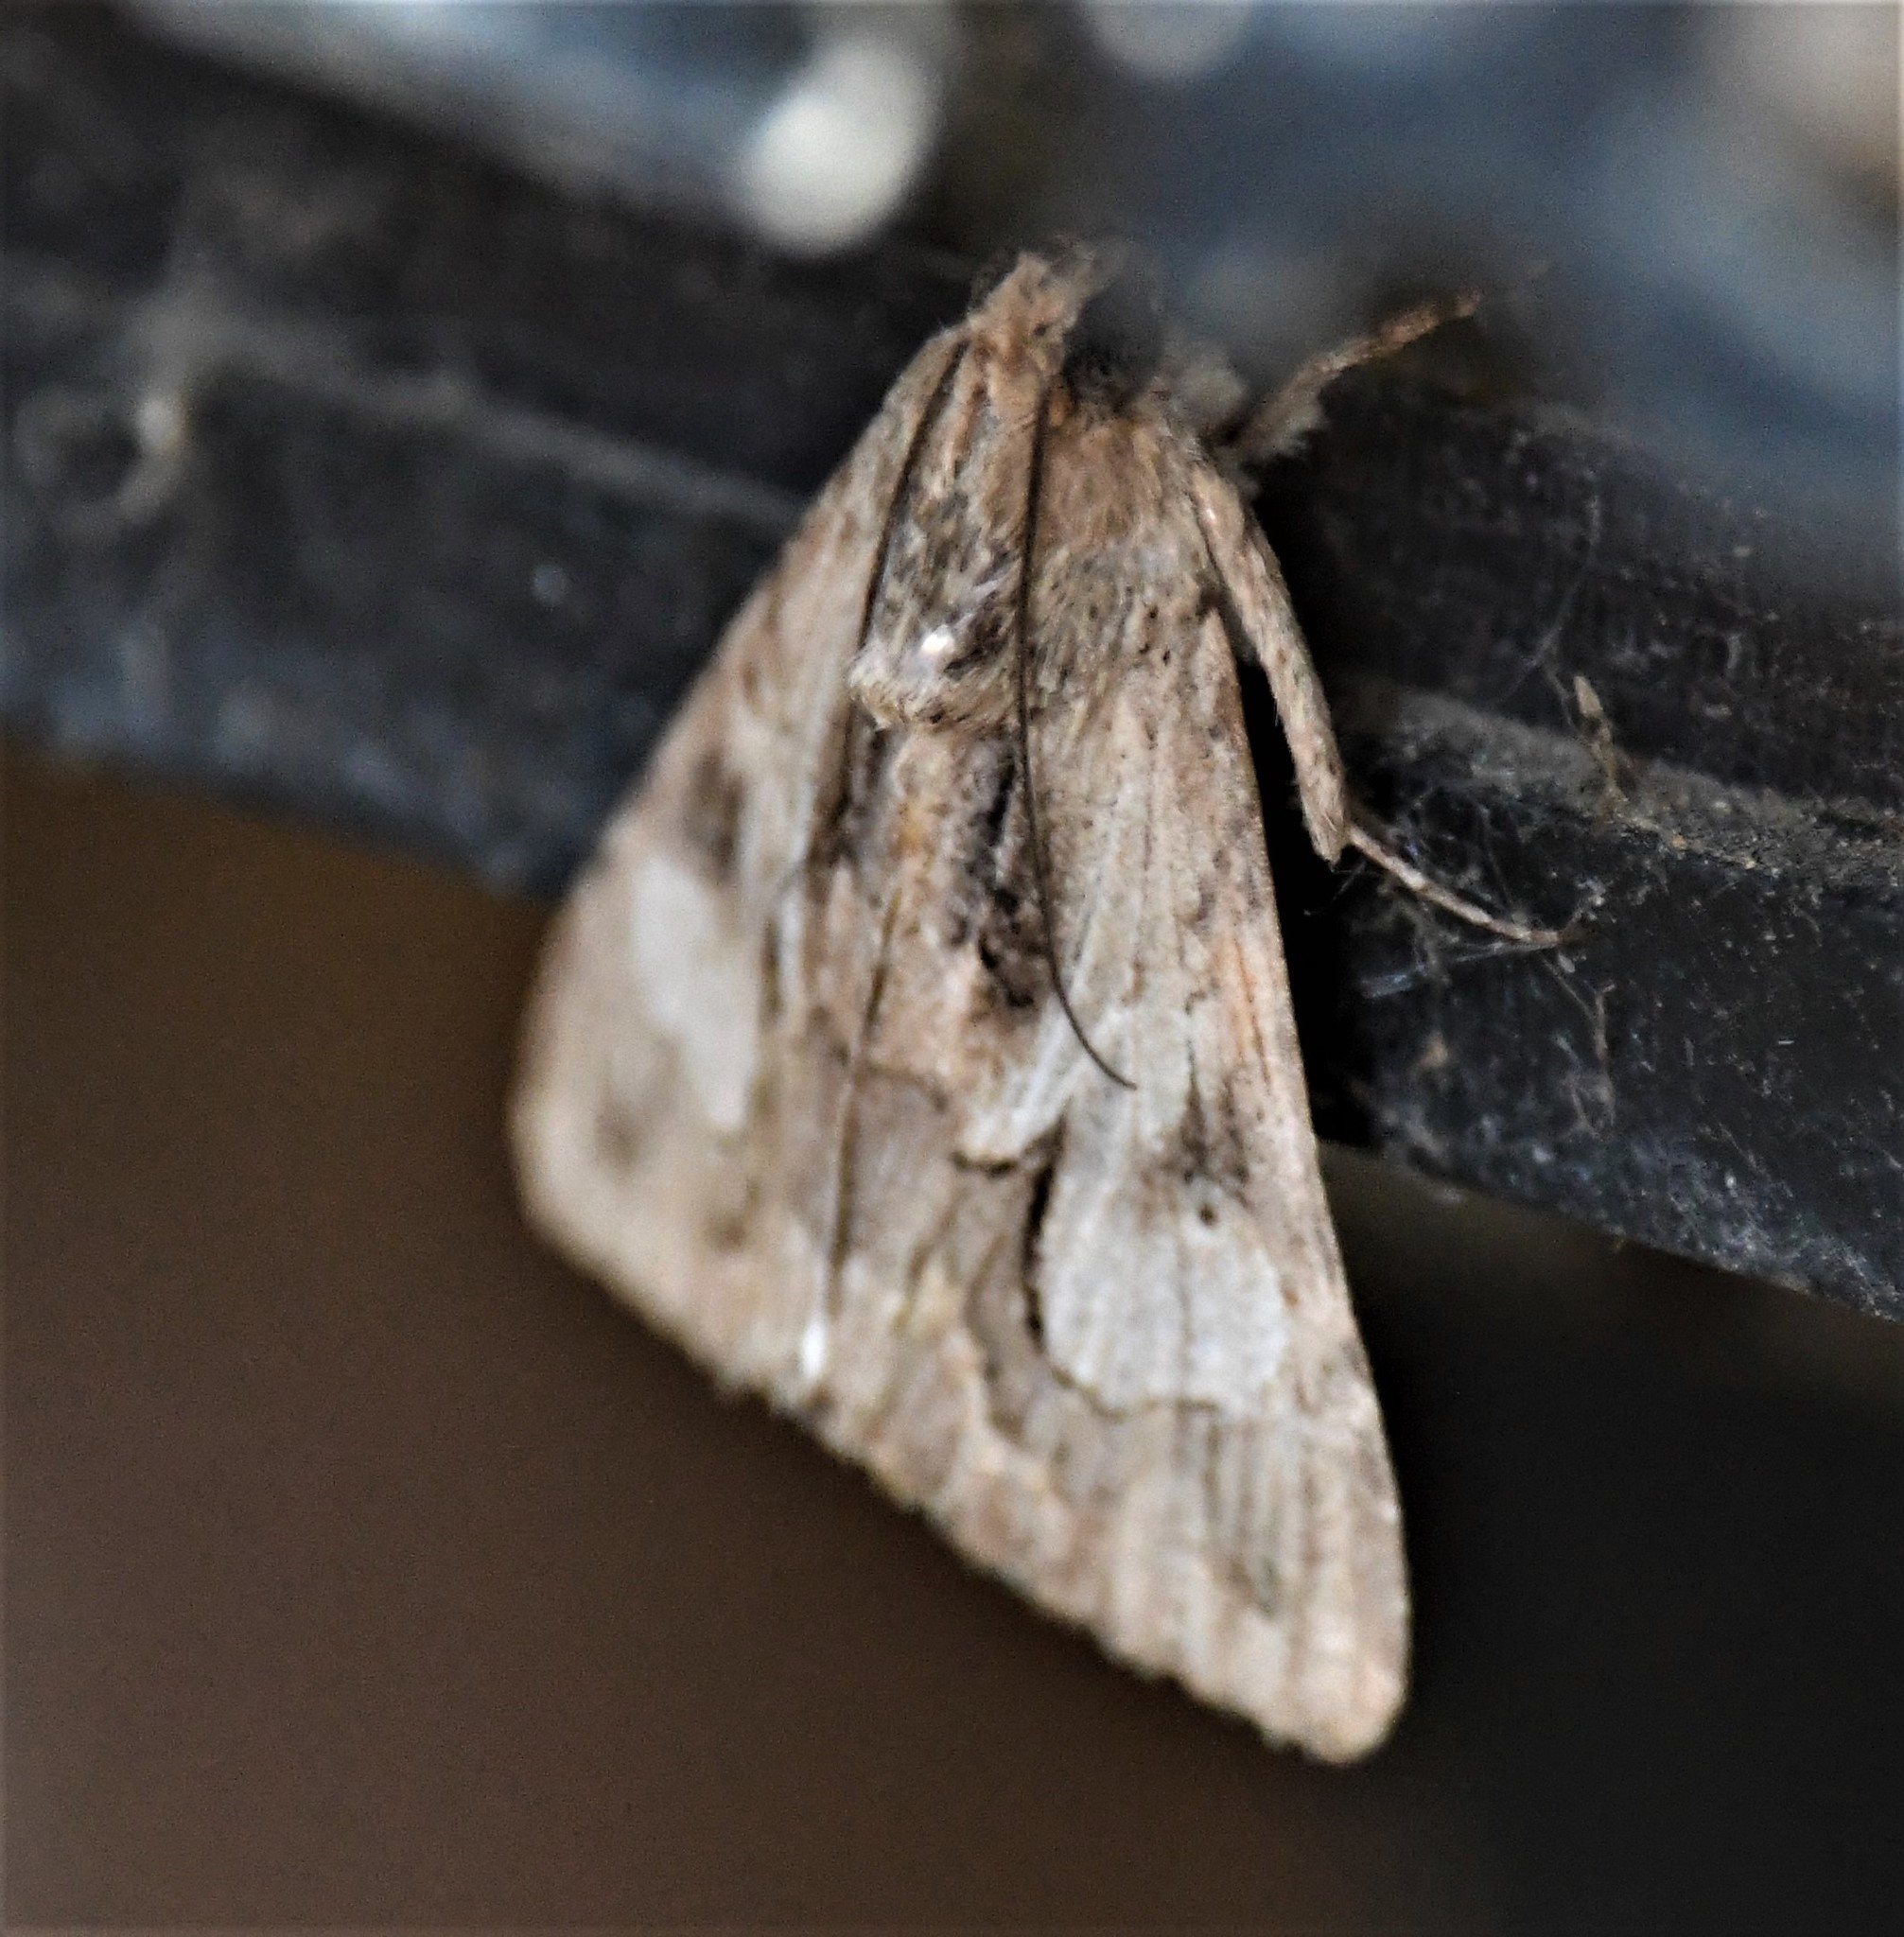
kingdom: Animalia
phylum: Arthropoda
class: Insecta
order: Lepidoptera
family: Erebidae
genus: Melipotis
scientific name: Melipotis jucunda
